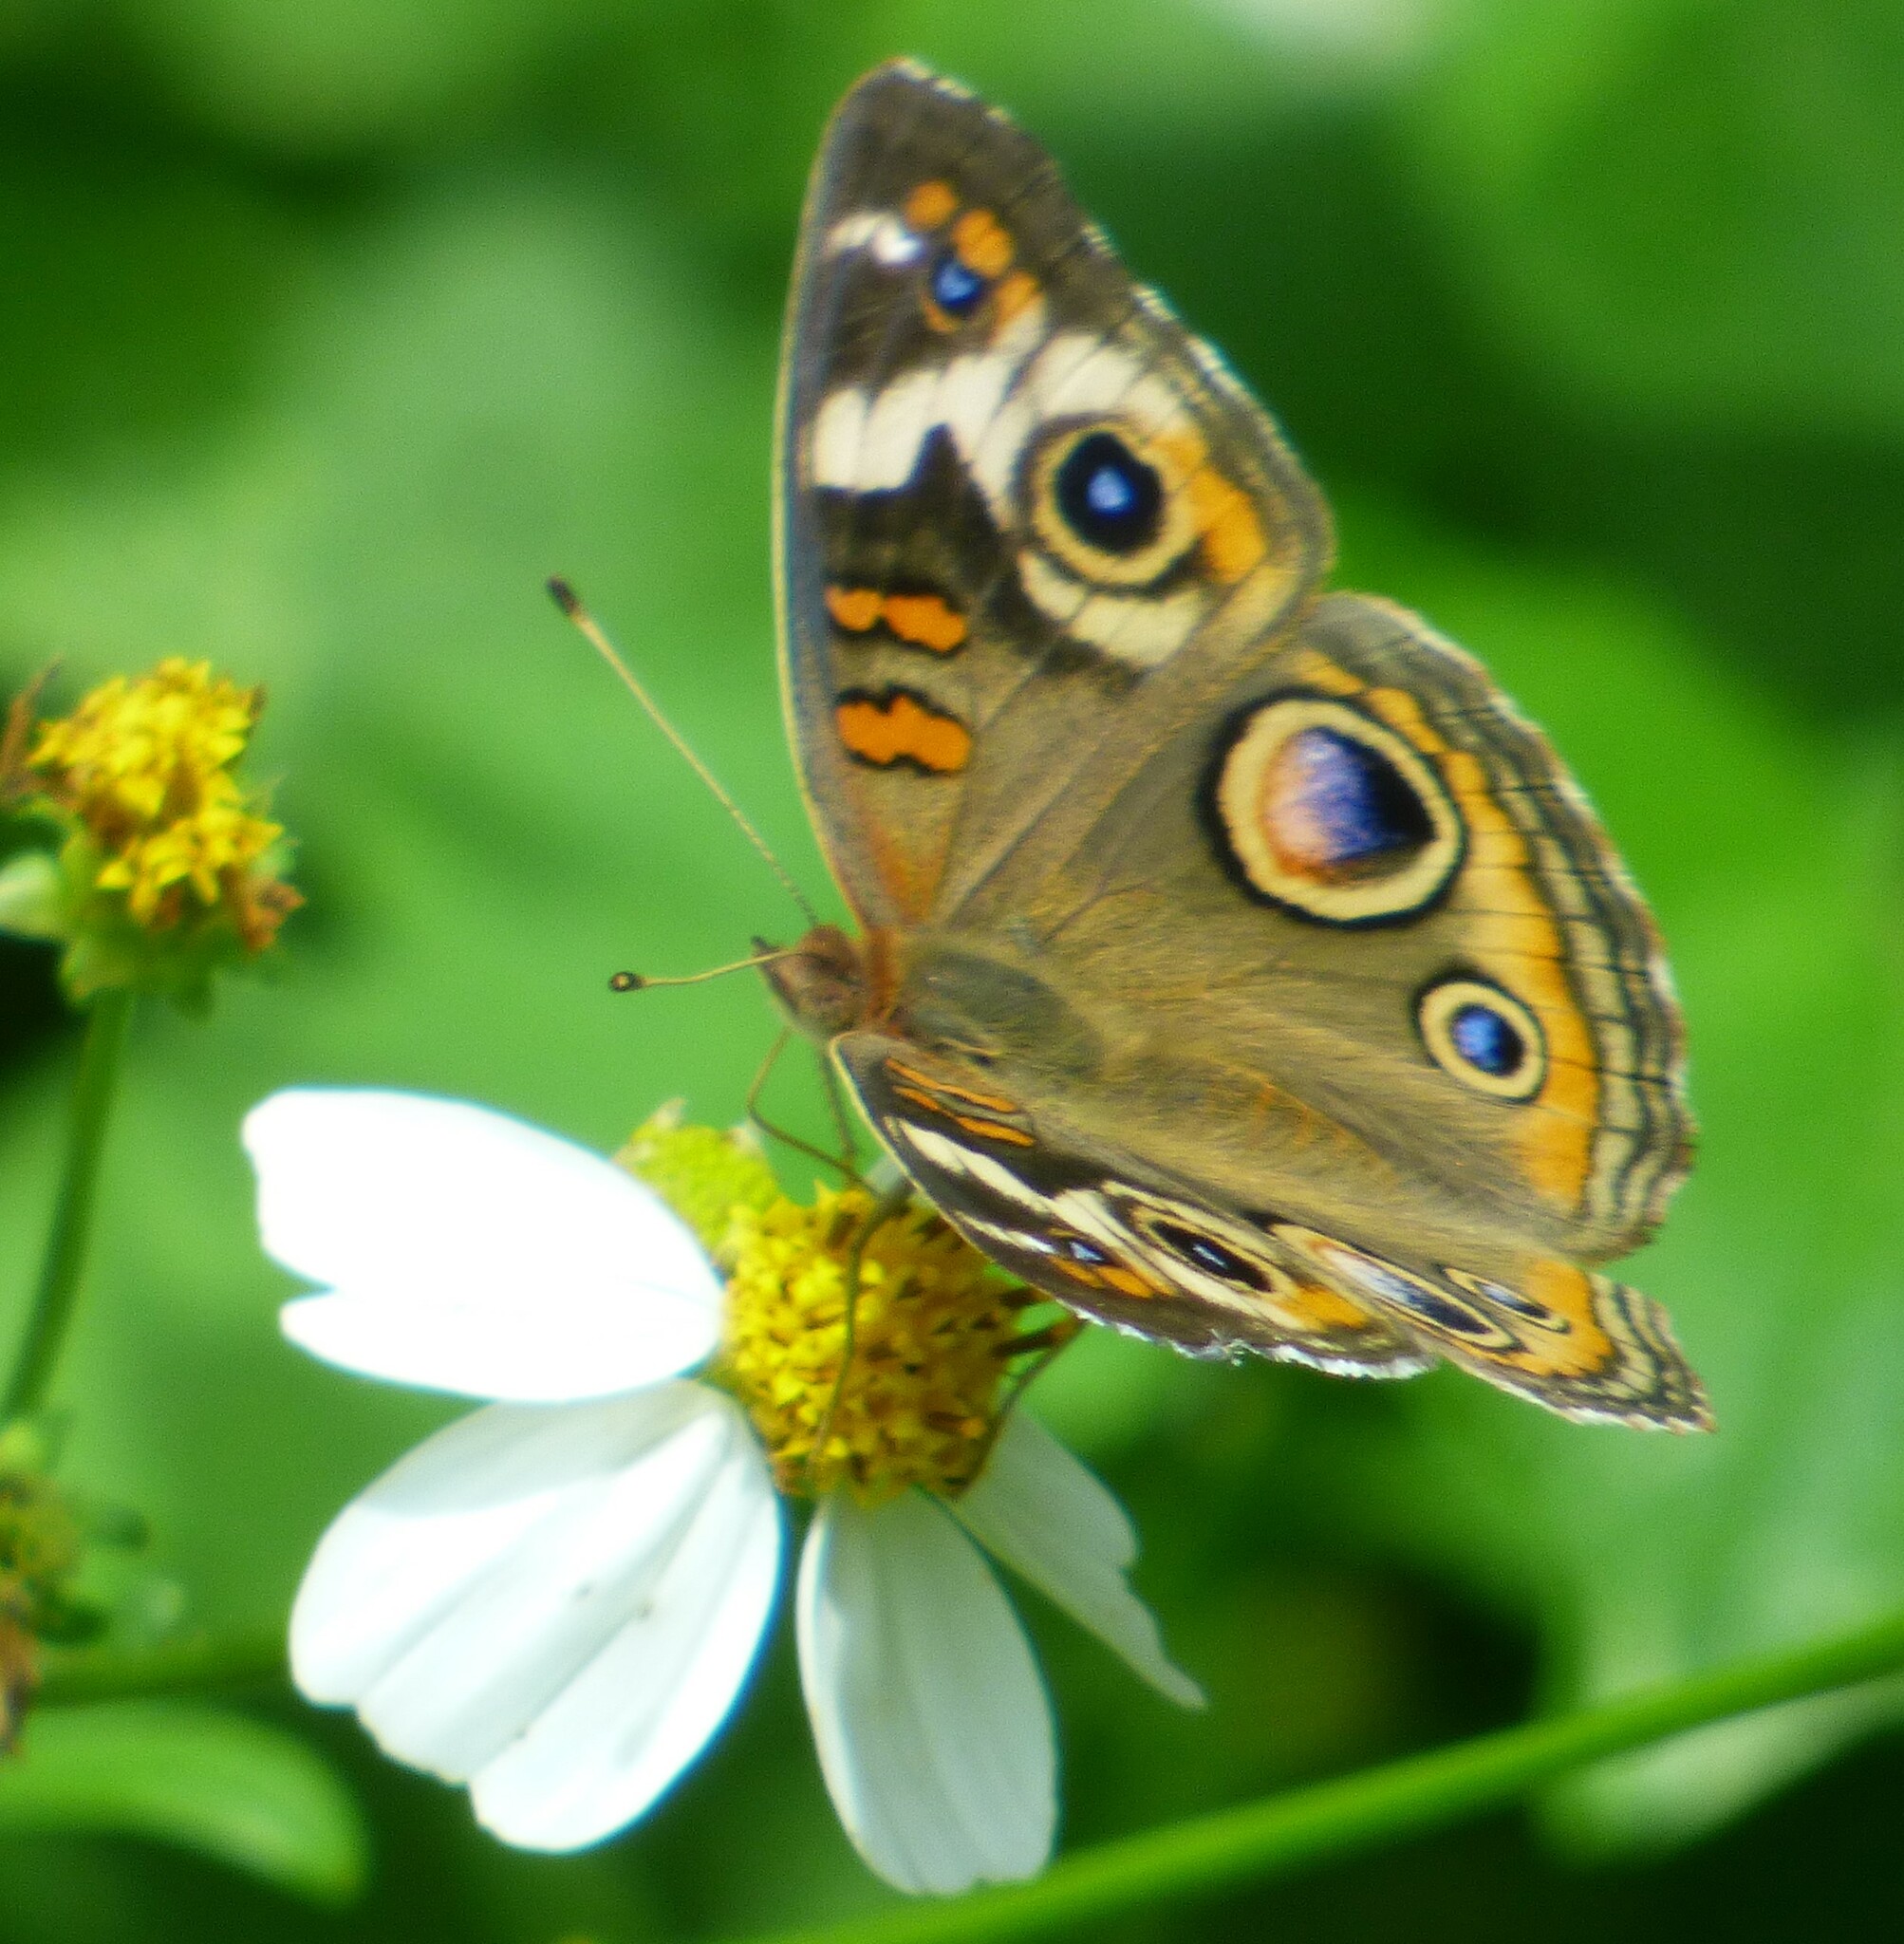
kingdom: Animalia
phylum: Arthropoda
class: Insecta
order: Lepidoptera
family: Nymphalidae
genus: Junonia
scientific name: Junonia coenia
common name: Common buckeye
